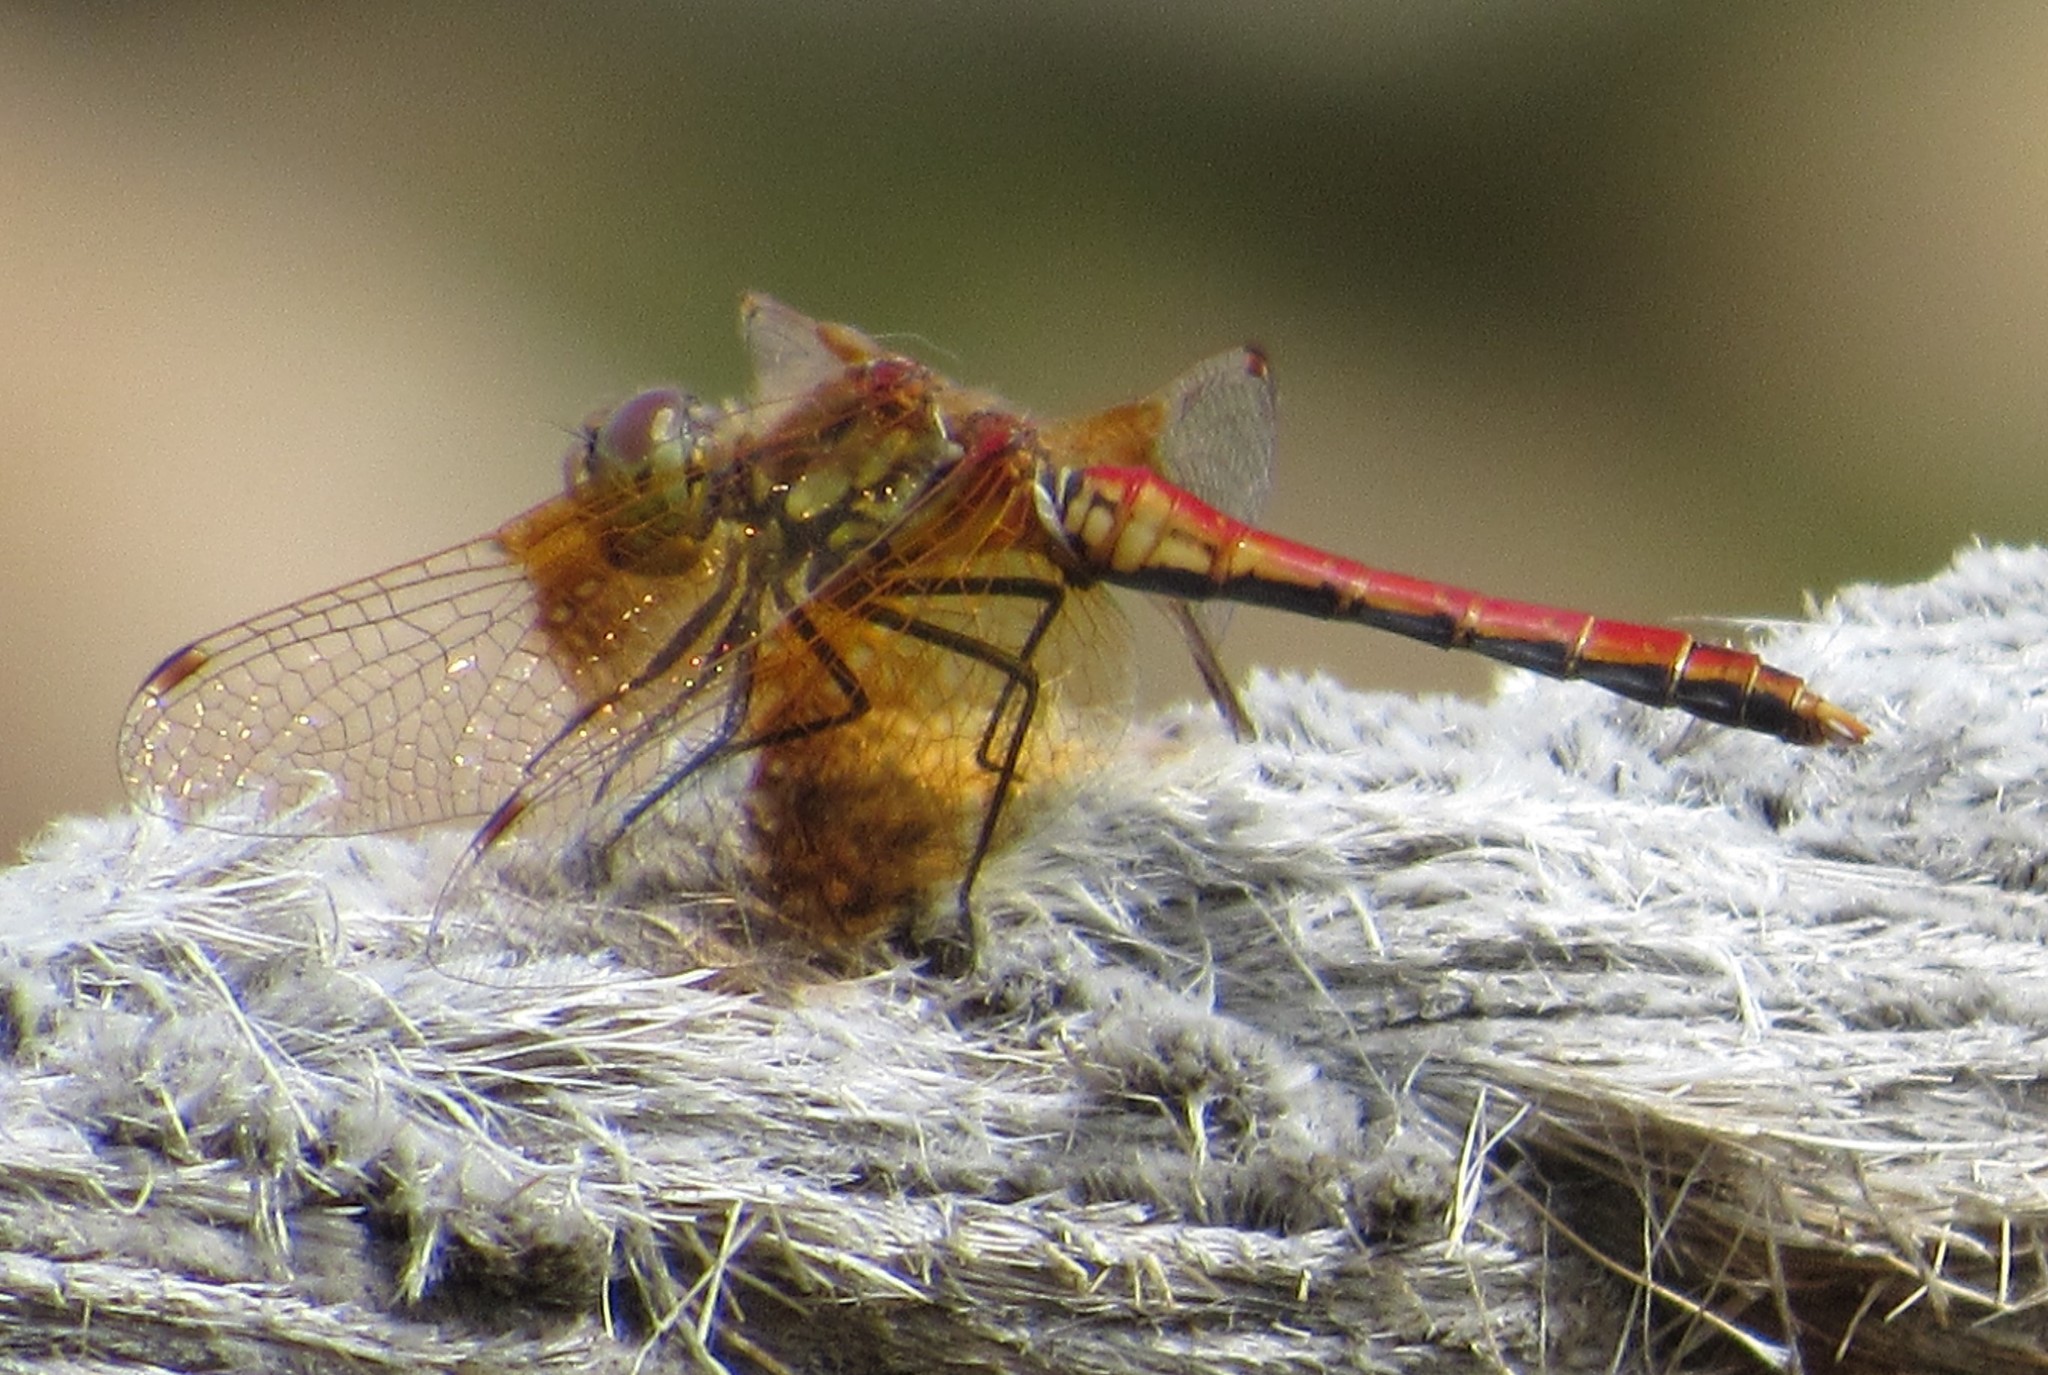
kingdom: Animalia
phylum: Arthropoda
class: Insecta
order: Odonata
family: Libellulidae
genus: Sympetrum
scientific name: Sympetrum semicinctum
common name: Band-winged meadowhawk
